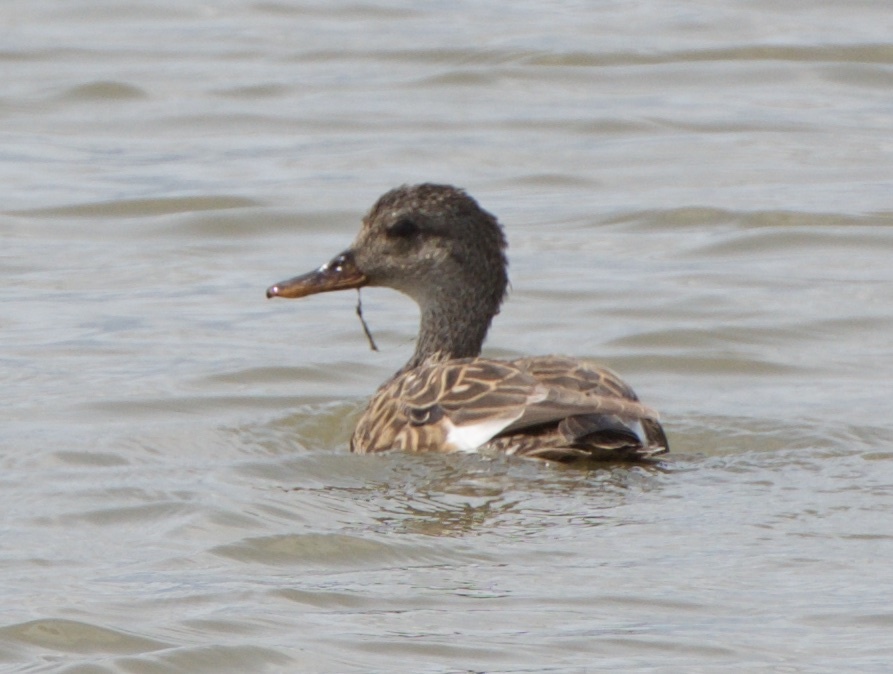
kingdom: Animalia
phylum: Chordata
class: Aves
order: Anseriformes
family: Anatidae
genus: Mareca
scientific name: Mareca strepera
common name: Gadwall
